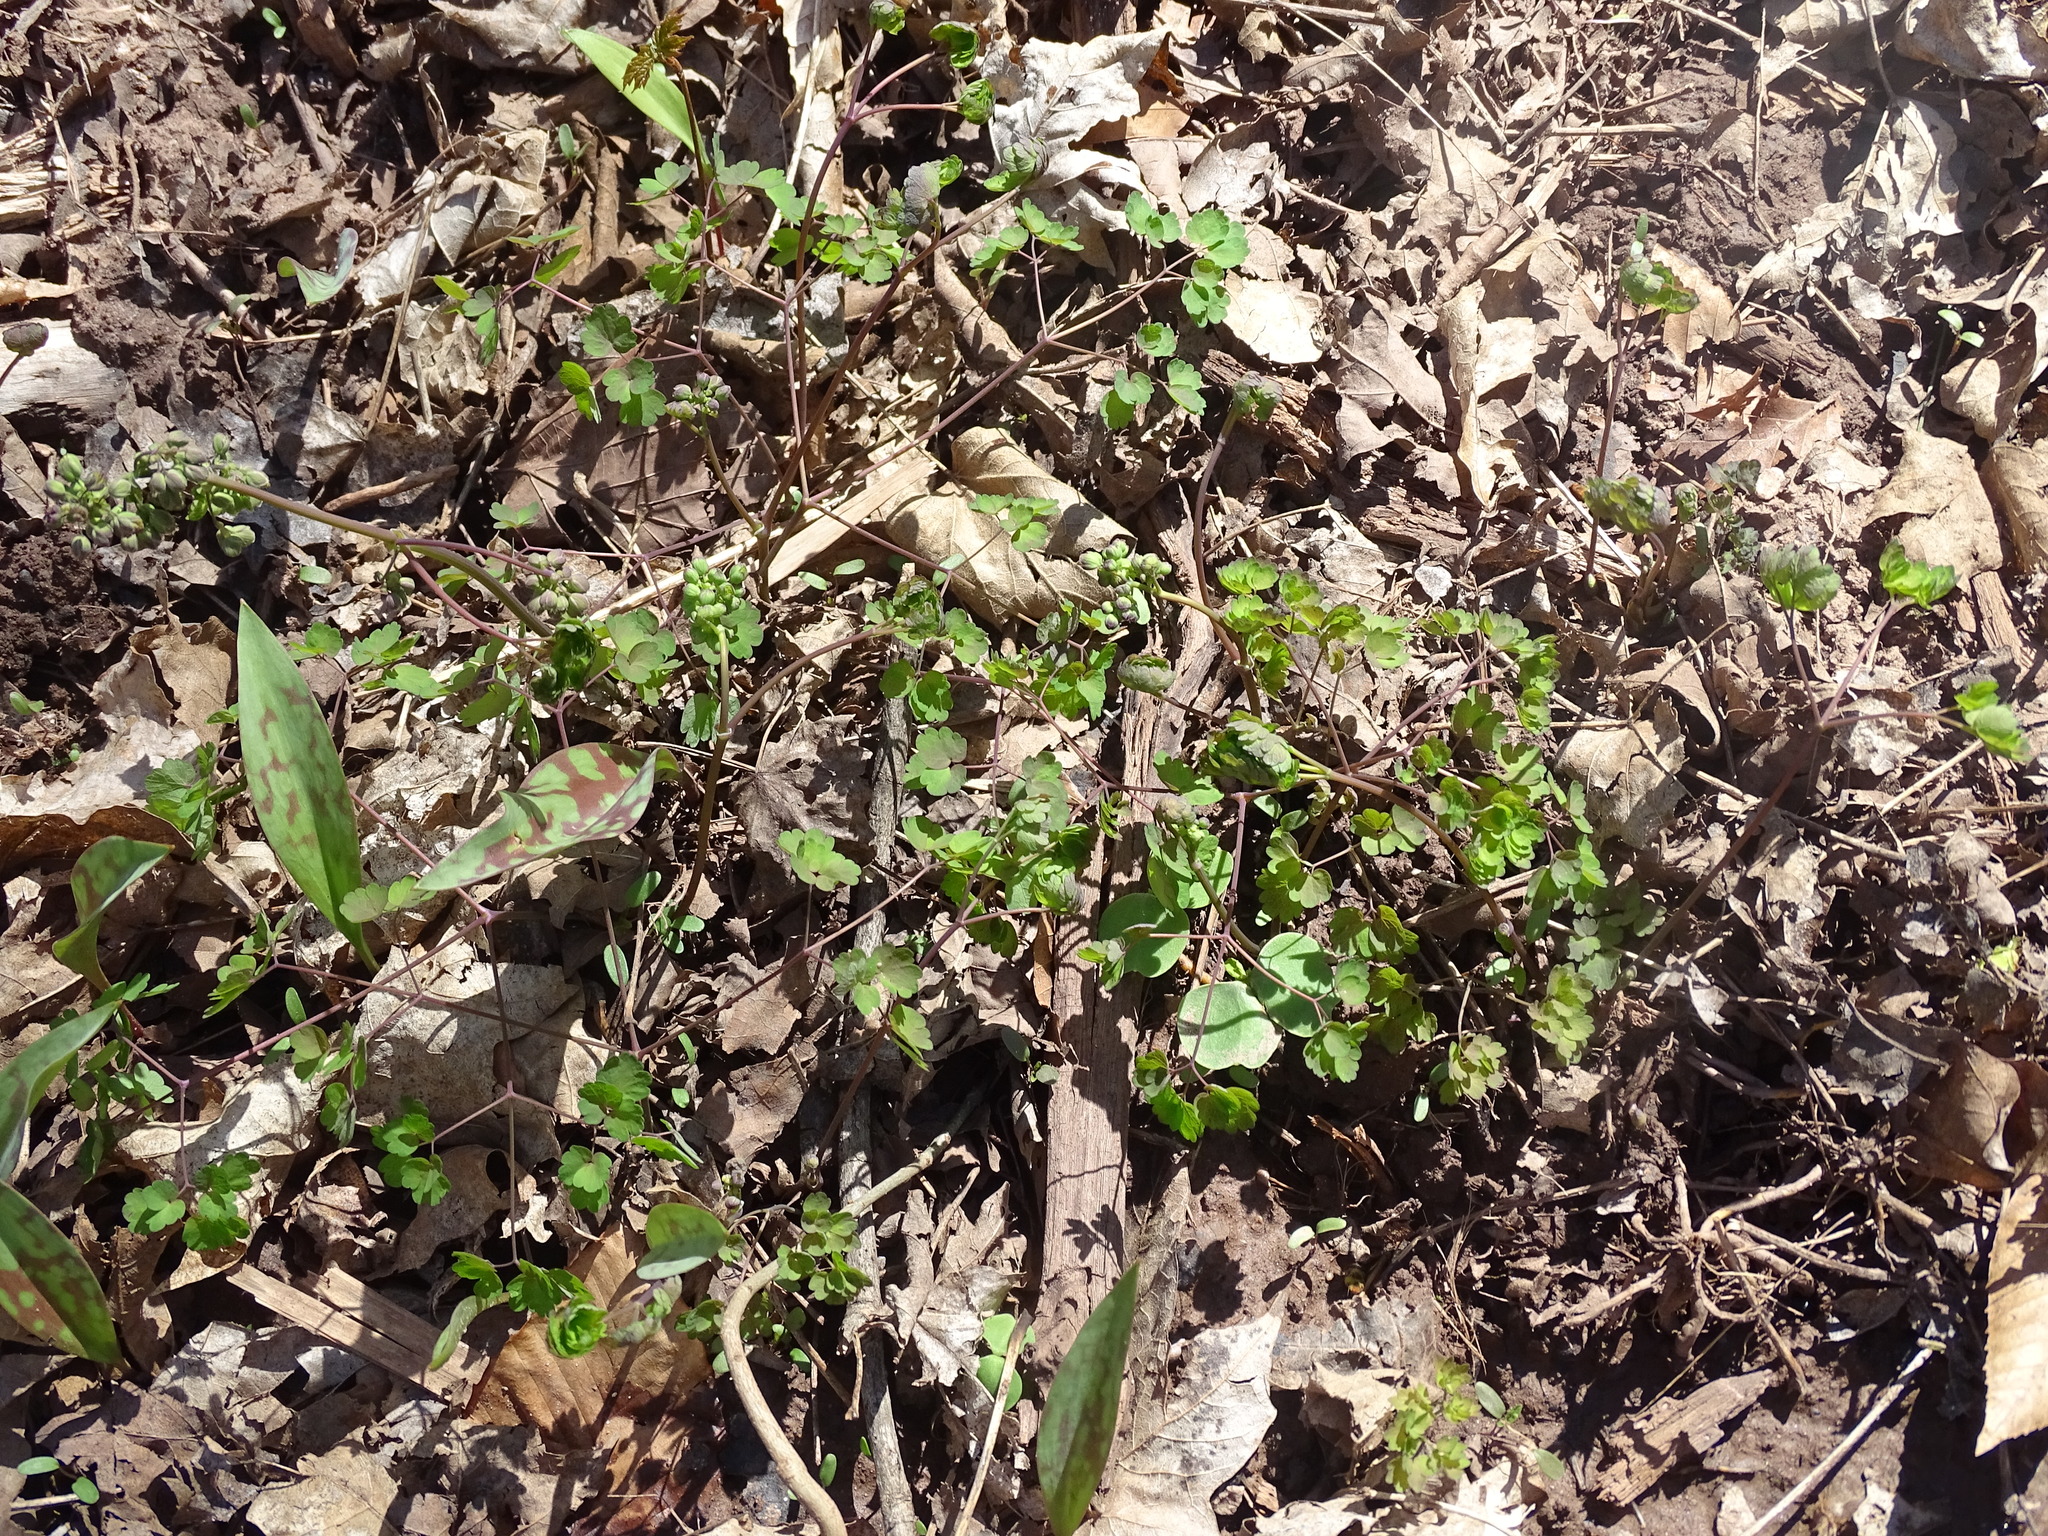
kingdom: Plantae
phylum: Tracheophyta
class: Magnoliopsida
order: Ranunculales
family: Ranunculaceae
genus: Thalictrum
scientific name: Thalictrum dioicum
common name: Early meadow-rue
